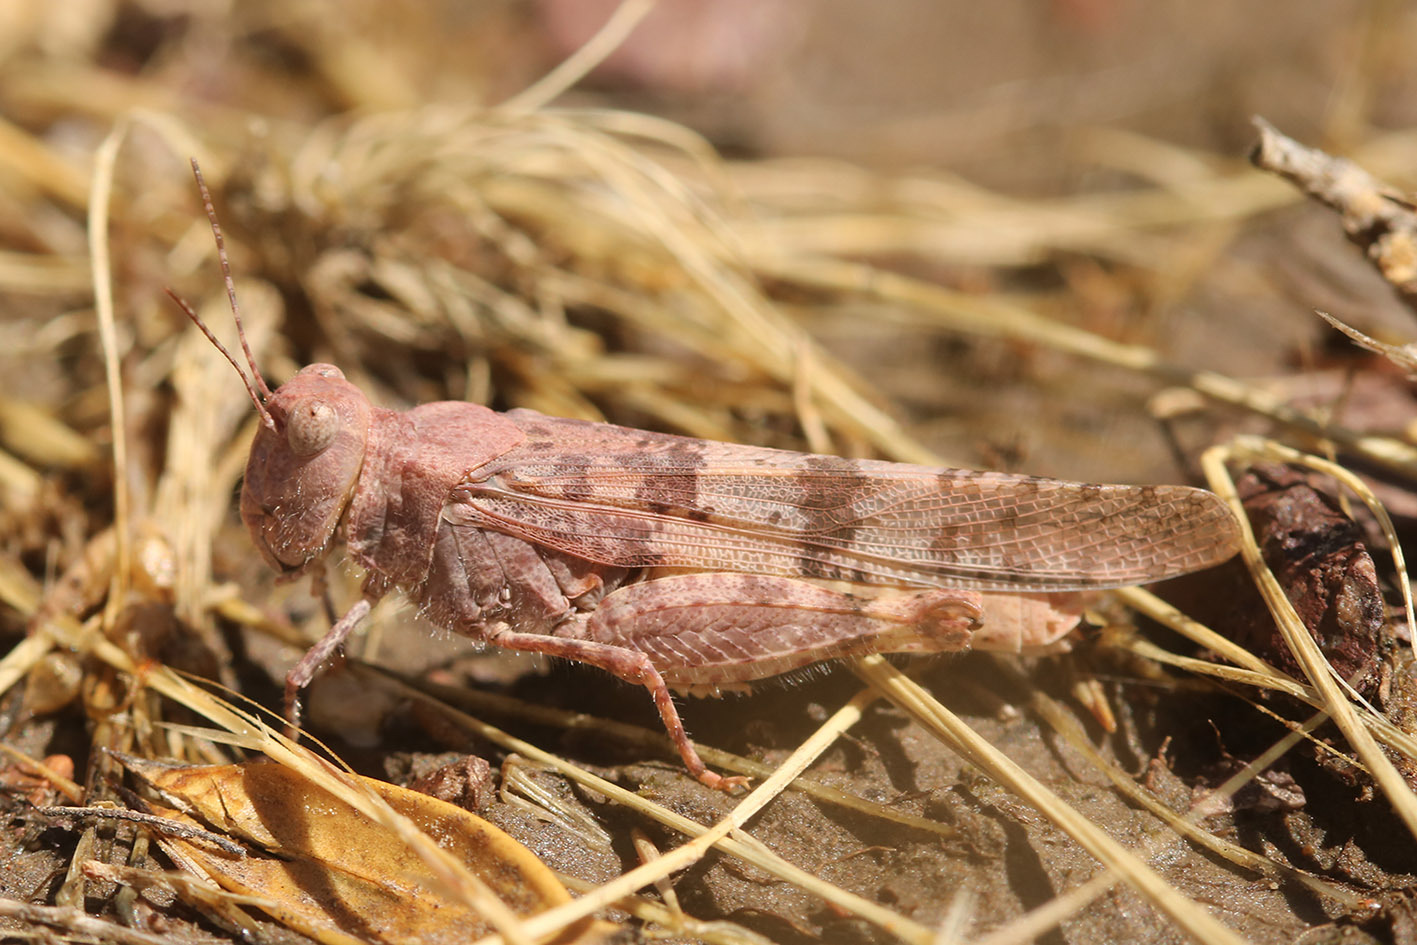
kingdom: Animalia
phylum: Arthropoda
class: Insecta
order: Orthoptera
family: Acrididae
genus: Trimerotropis
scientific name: Trimerotropis pallidipennis
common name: Pallid-winged grasshopper
